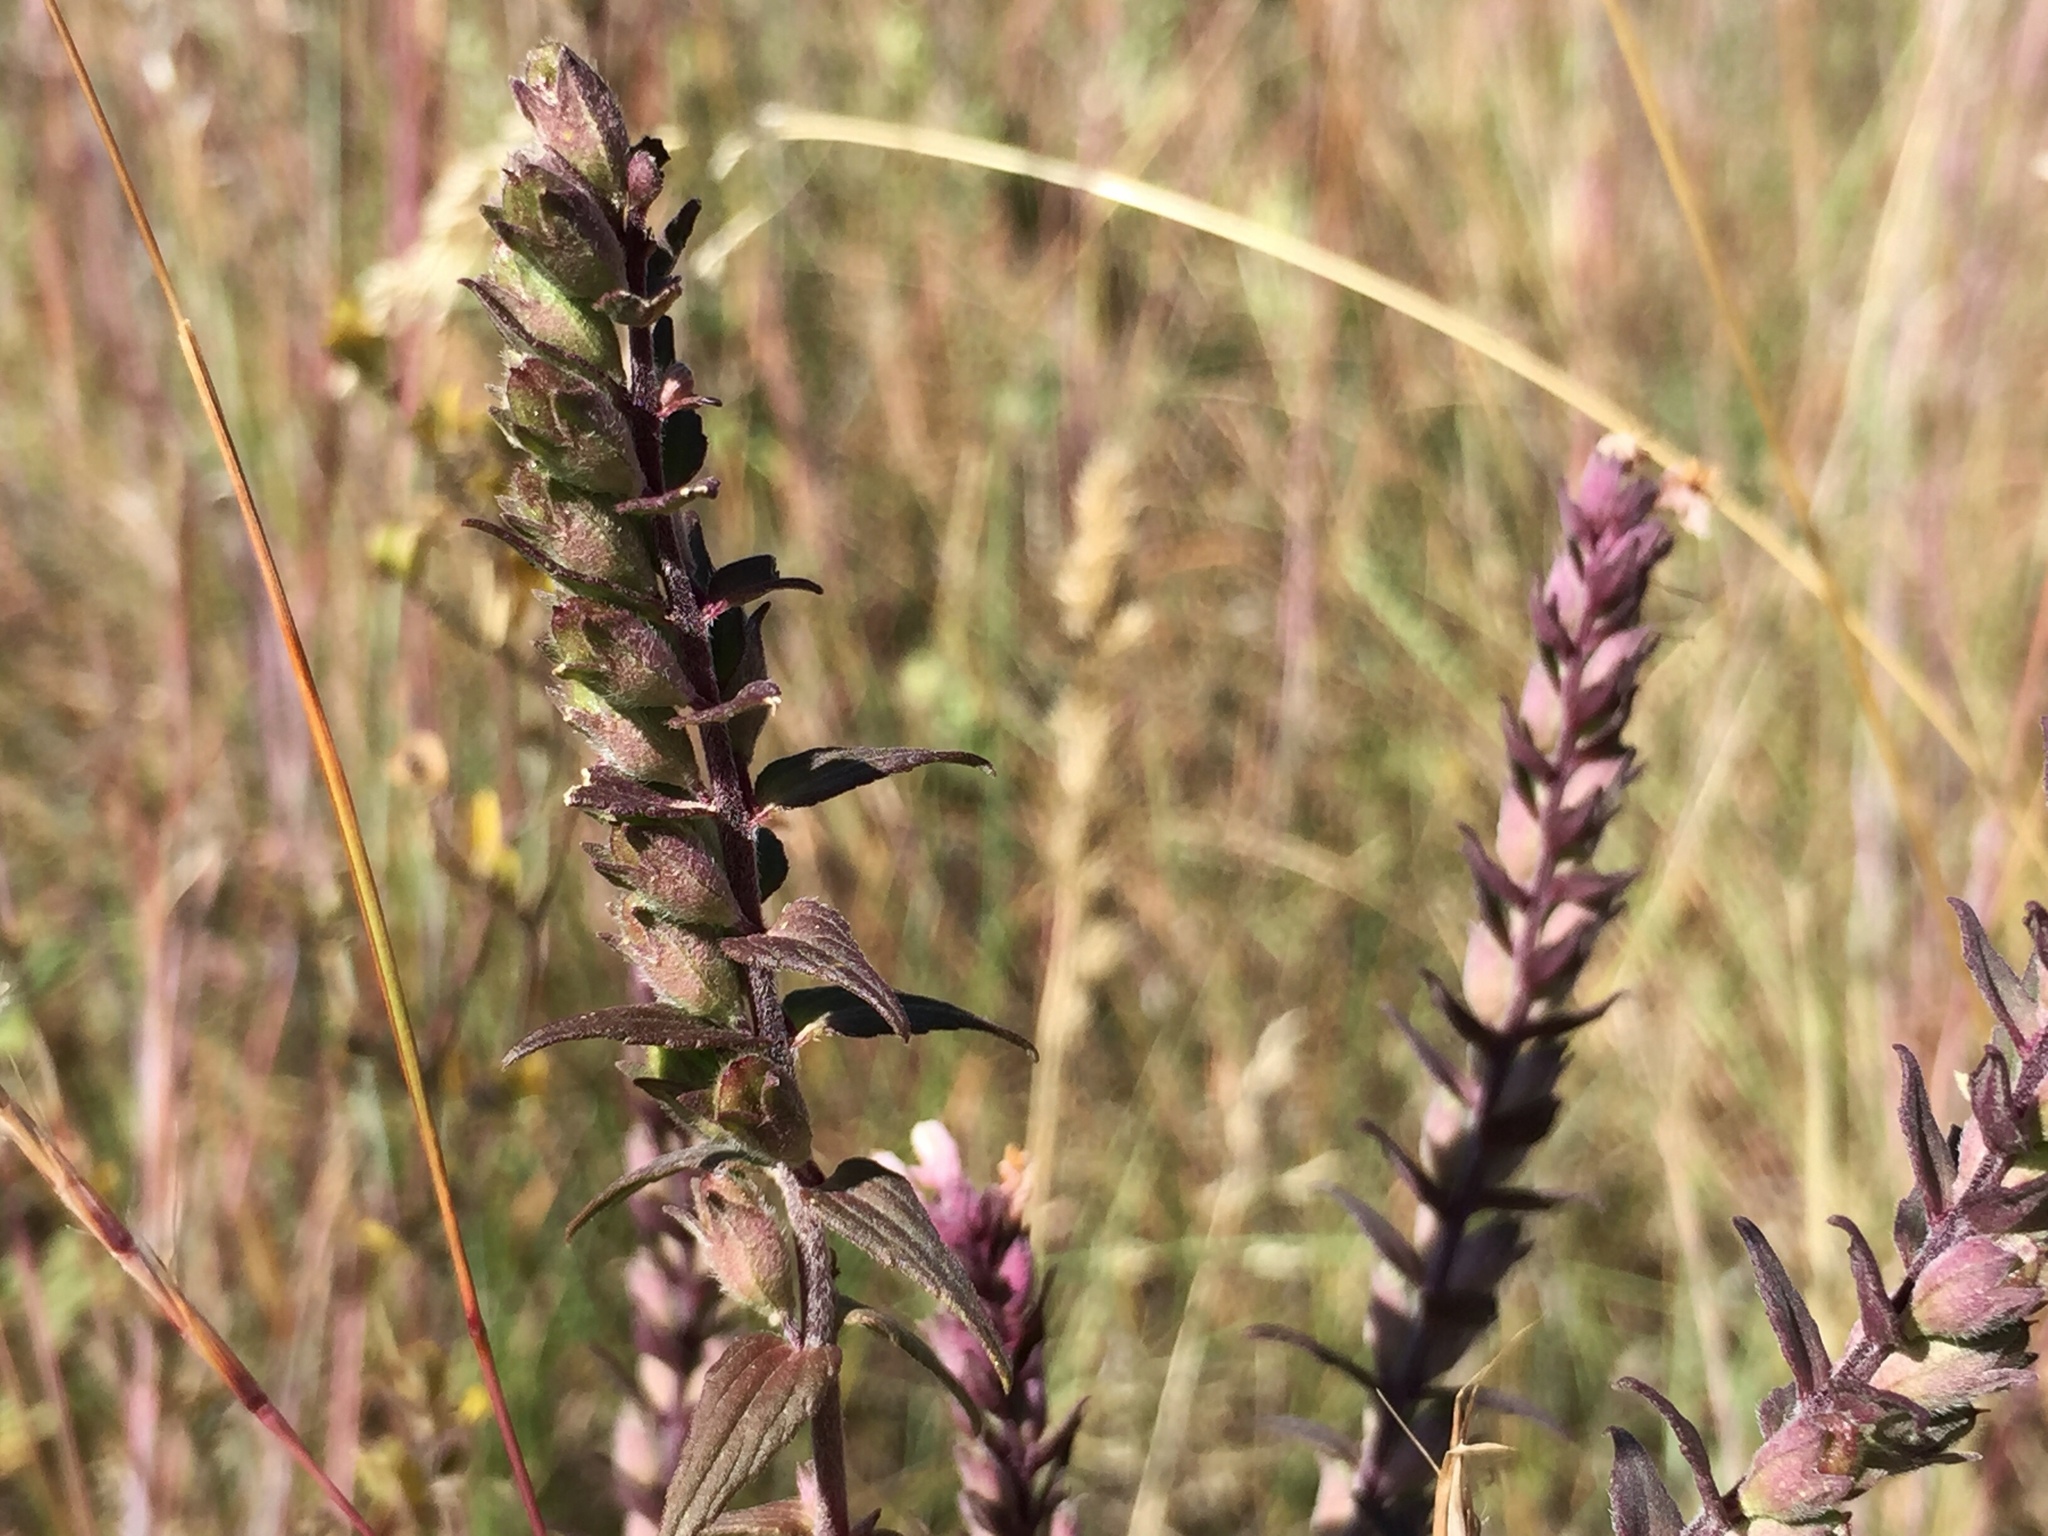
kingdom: Plantae
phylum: Tracheophyta
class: Magnoliopsida
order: Lamiales
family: Orobanchaceae
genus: Odontites
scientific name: Odontites vulgaris
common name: Broomrape
